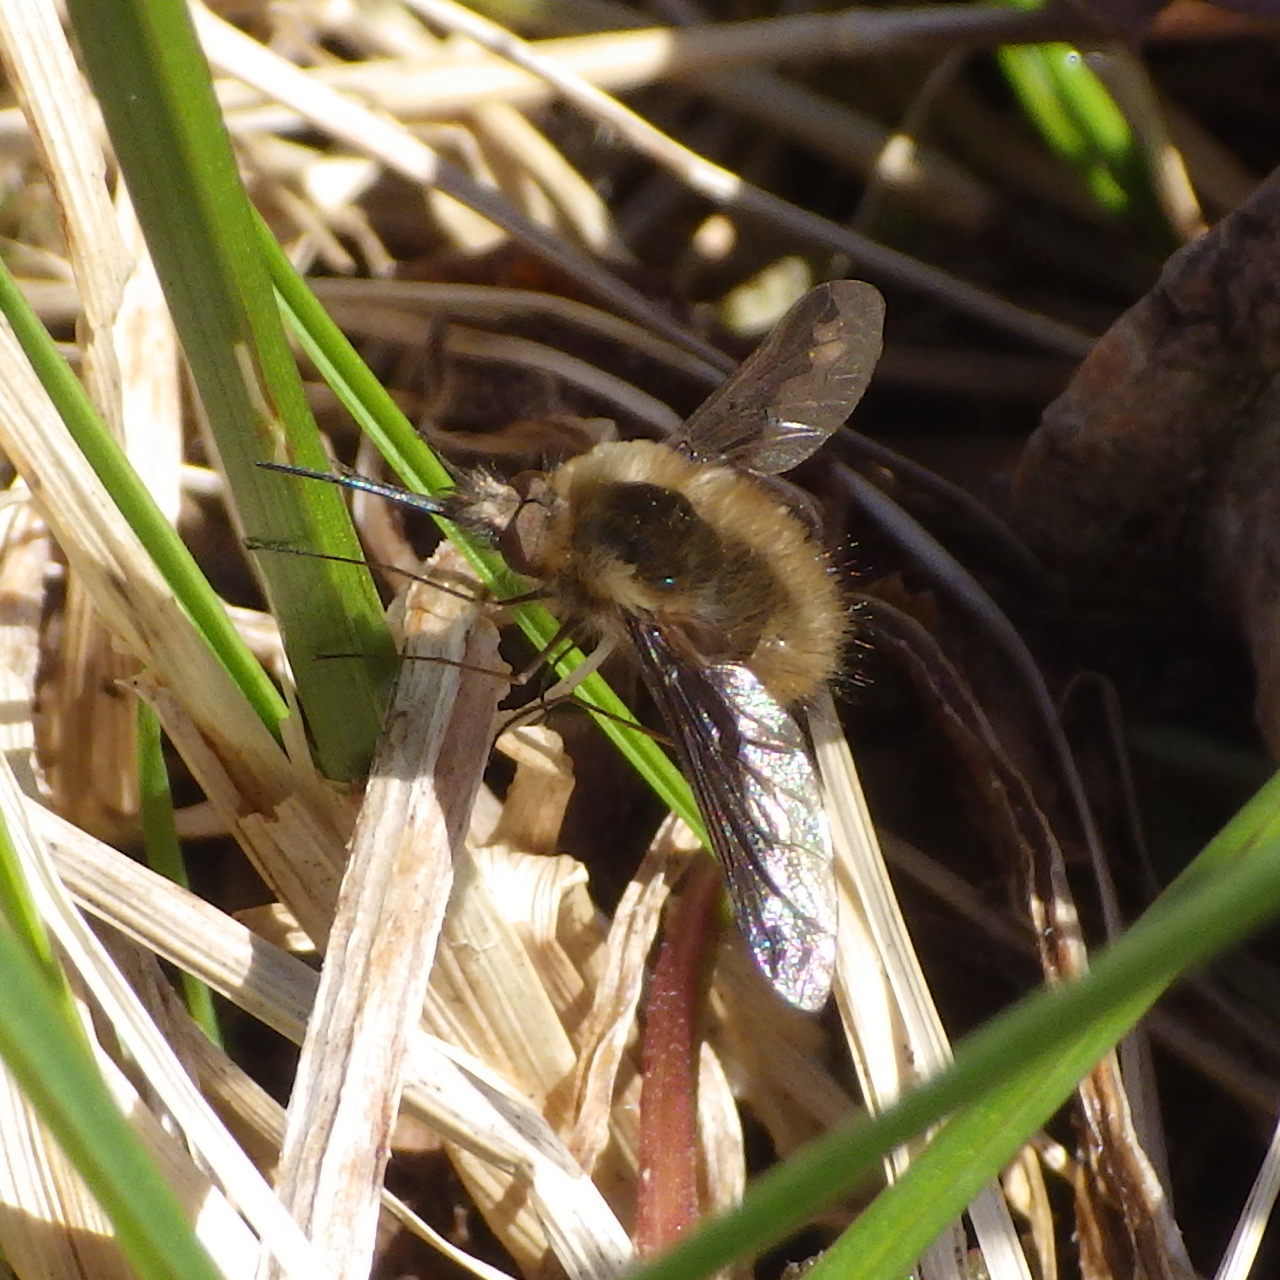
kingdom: Animalia
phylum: Arthropoda
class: Insecta
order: Diptera
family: Bombyliidae
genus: Bombylius
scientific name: Bombylius major
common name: Bee fly
